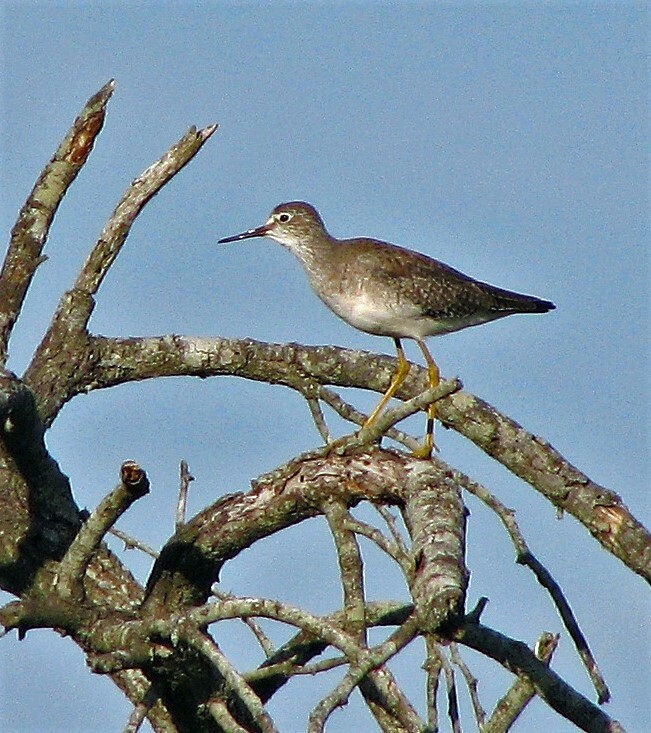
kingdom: Animalia
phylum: Chordata
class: Aves
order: Charadriiformes
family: Scolopacidae
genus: Tringa
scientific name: Tringa flavipes
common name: Lesser yellowlegs
